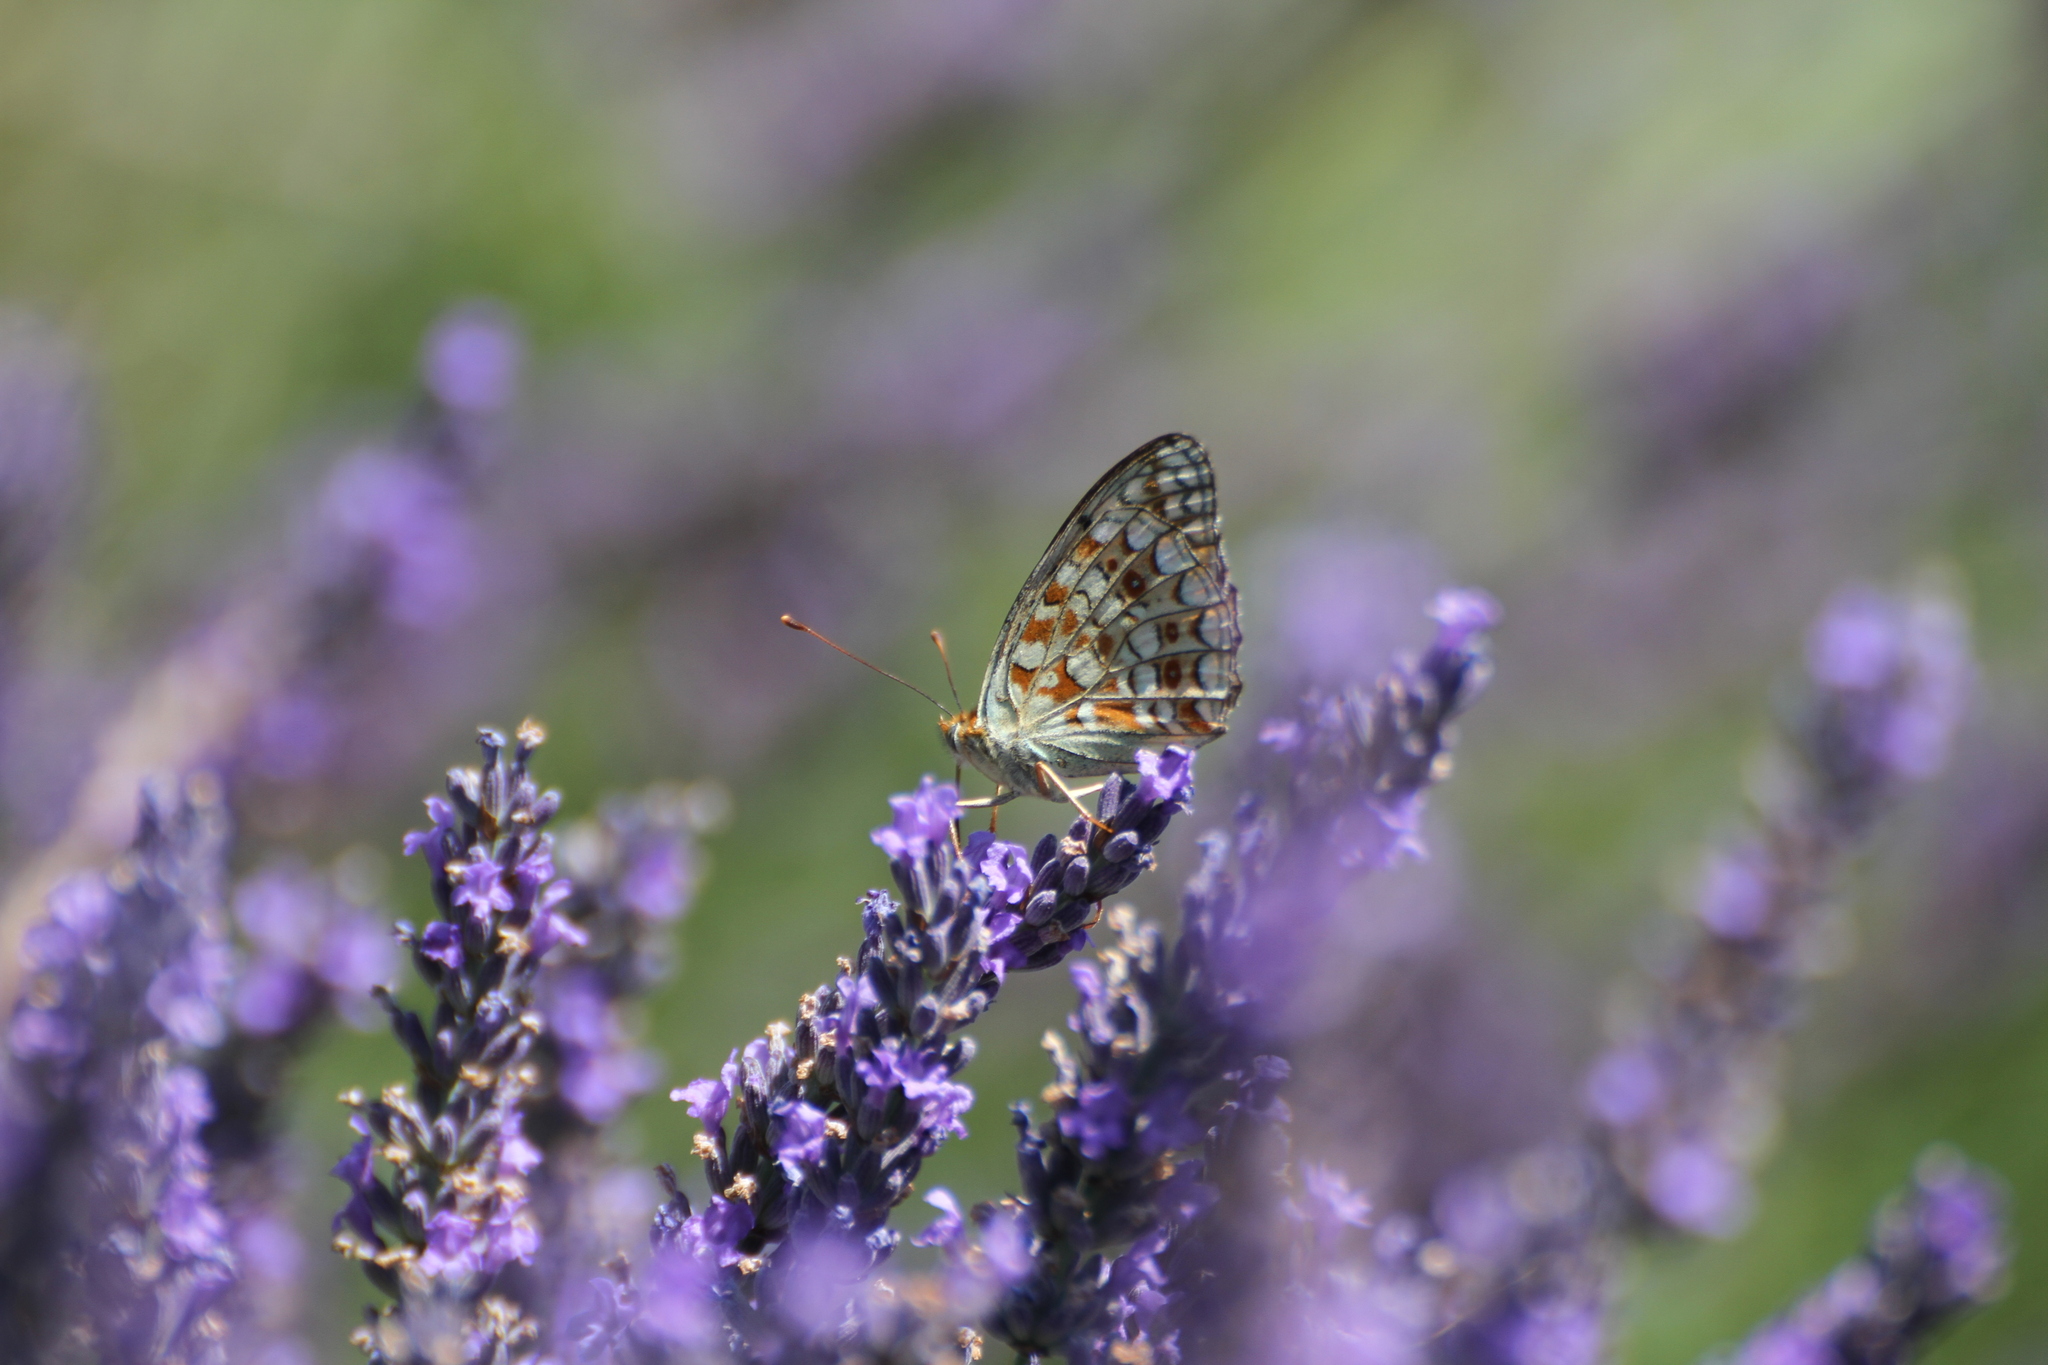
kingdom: Animalia
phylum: Arthropoda
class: Insecta
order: Lepidoptera
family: Nymphalidae
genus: Fabriciana
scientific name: Fabriciana niobe
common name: Niobe fritillary
